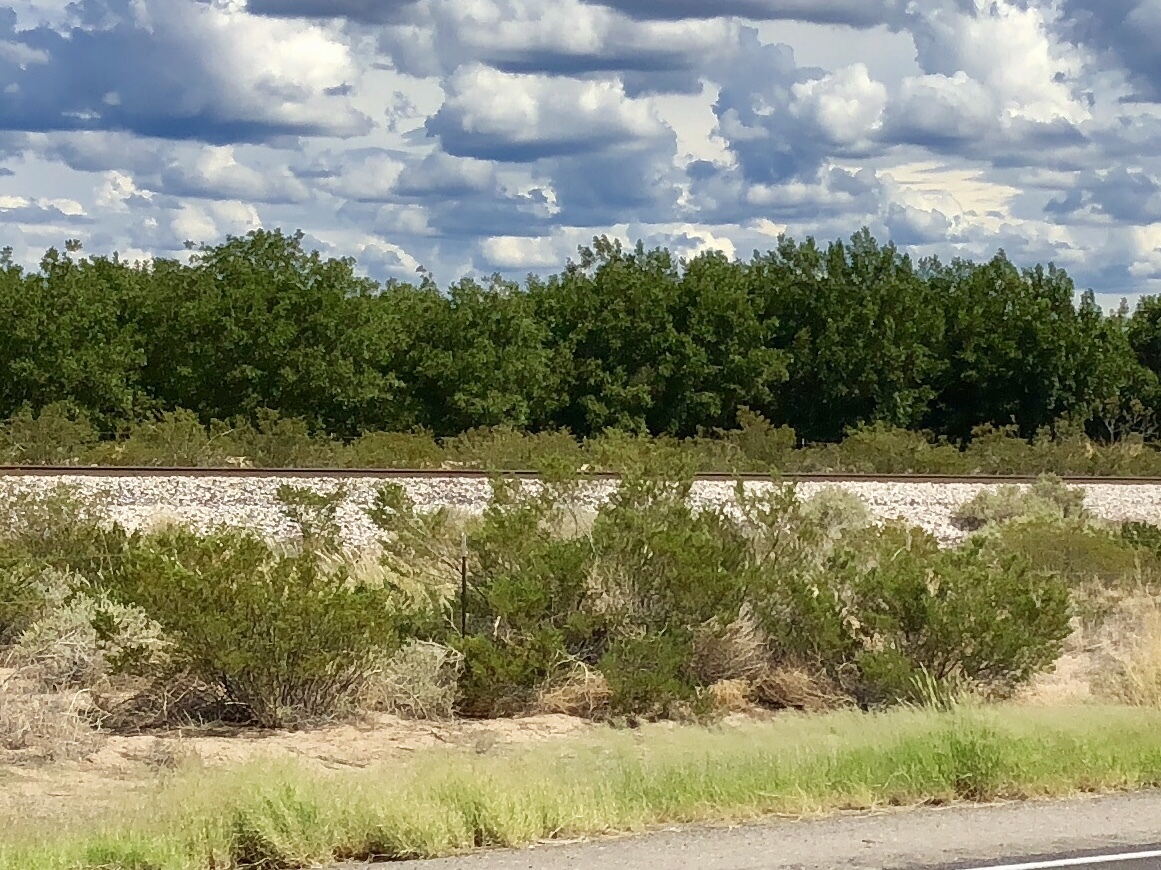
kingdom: Plantae
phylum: Tracheophyta
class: Magnoliopsida
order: Zygophyllales
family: Zygophyllaceae
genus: Larrea
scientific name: Larrea tridentata
